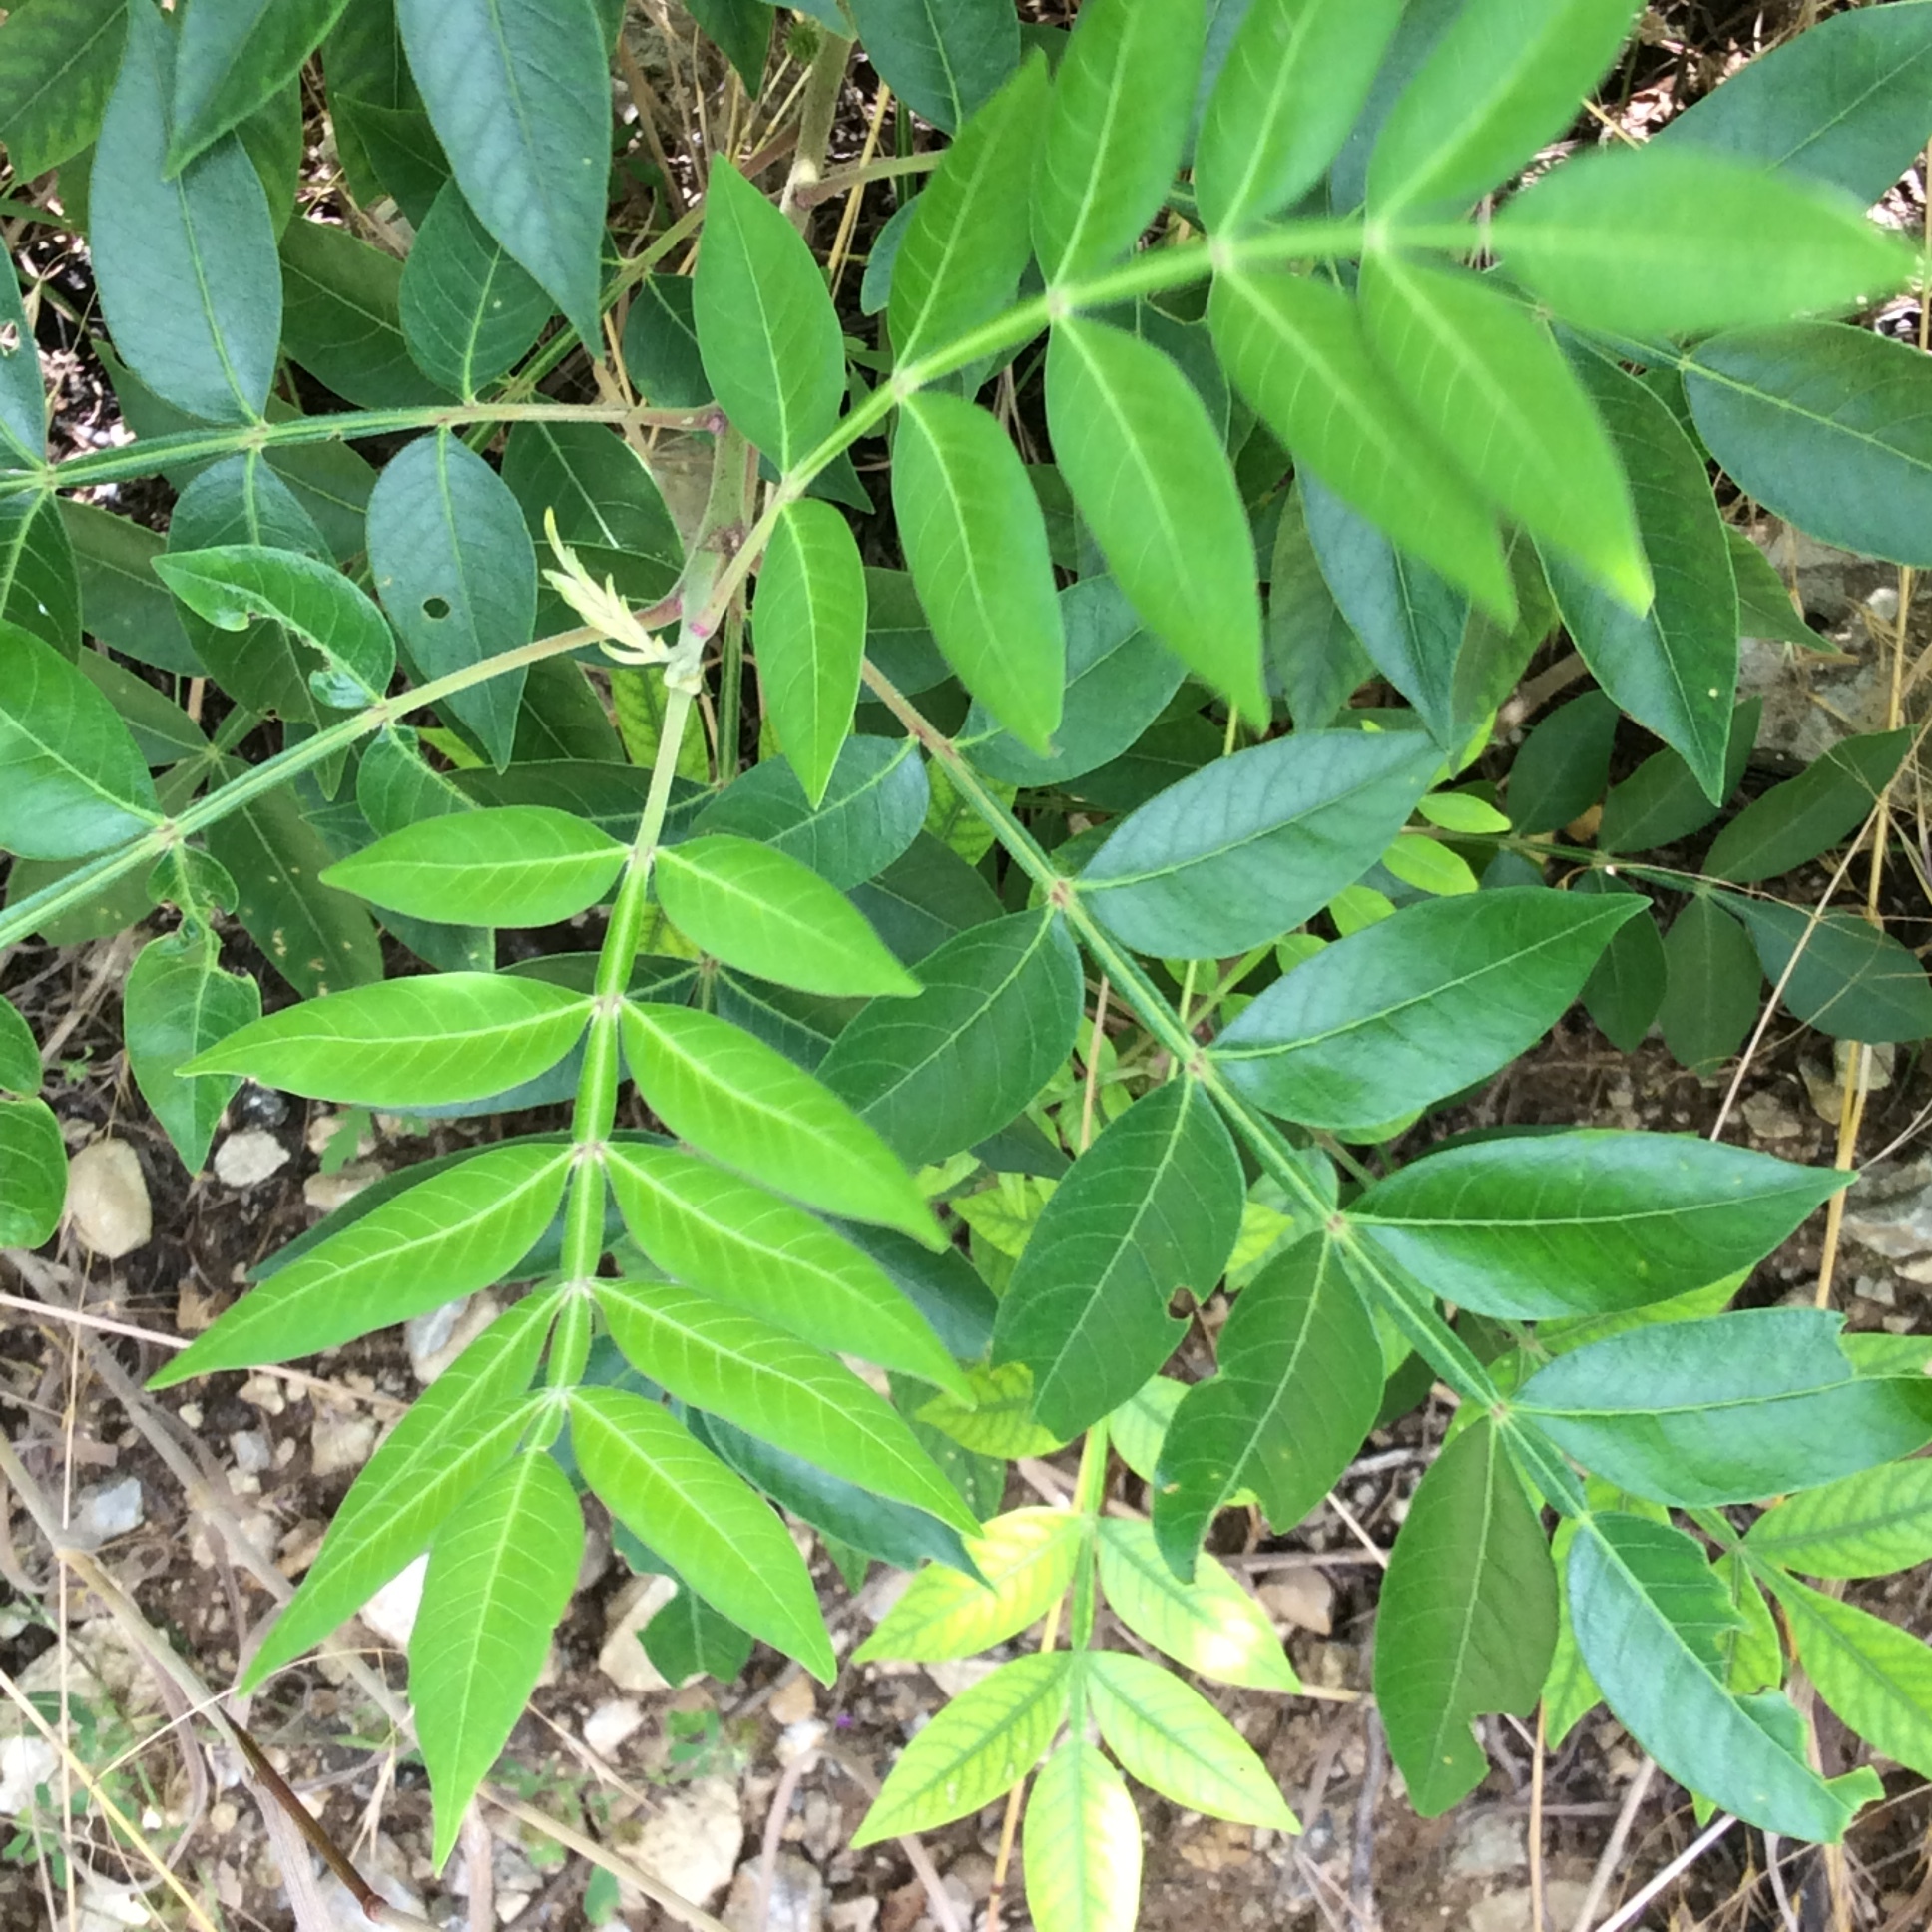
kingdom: Plantae
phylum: Tracheophyta
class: Magnoliopsida
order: Sapindales
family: Anacardiaceae
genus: Rhus
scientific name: Rhus copallina
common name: Shining sumac
